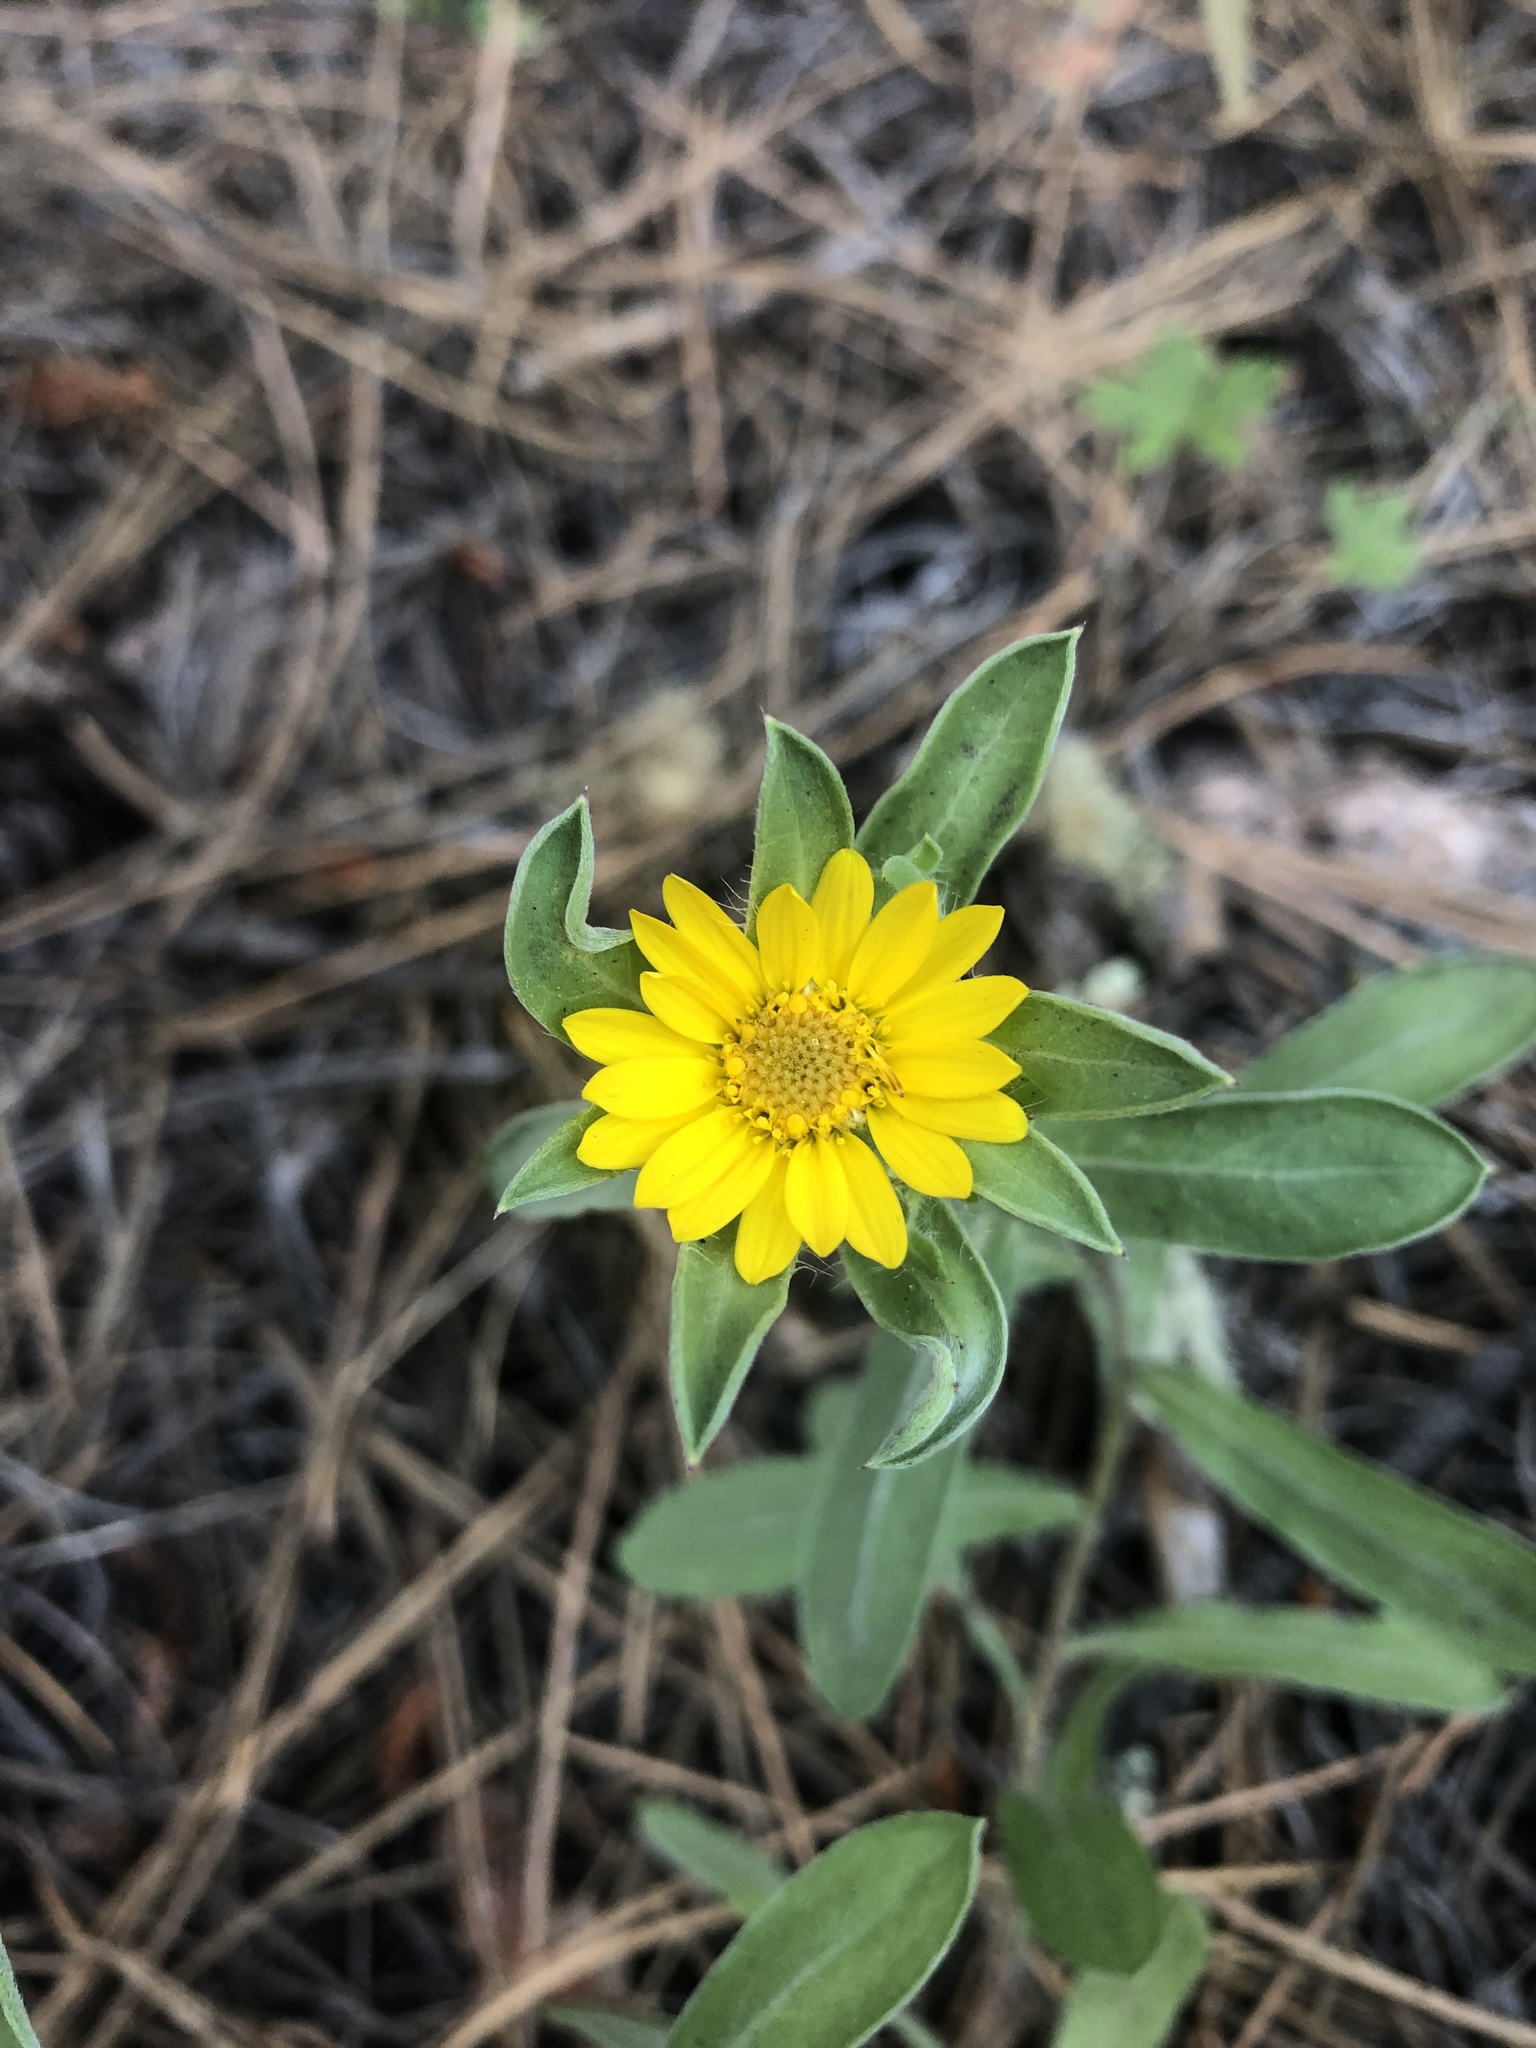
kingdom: Plantae
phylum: Tracheophyta
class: Magnoliopsida
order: Asterales
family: Asteraceae
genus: Heterotheca
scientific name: Heterotheca villosa
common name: Hairy false goldenaster
